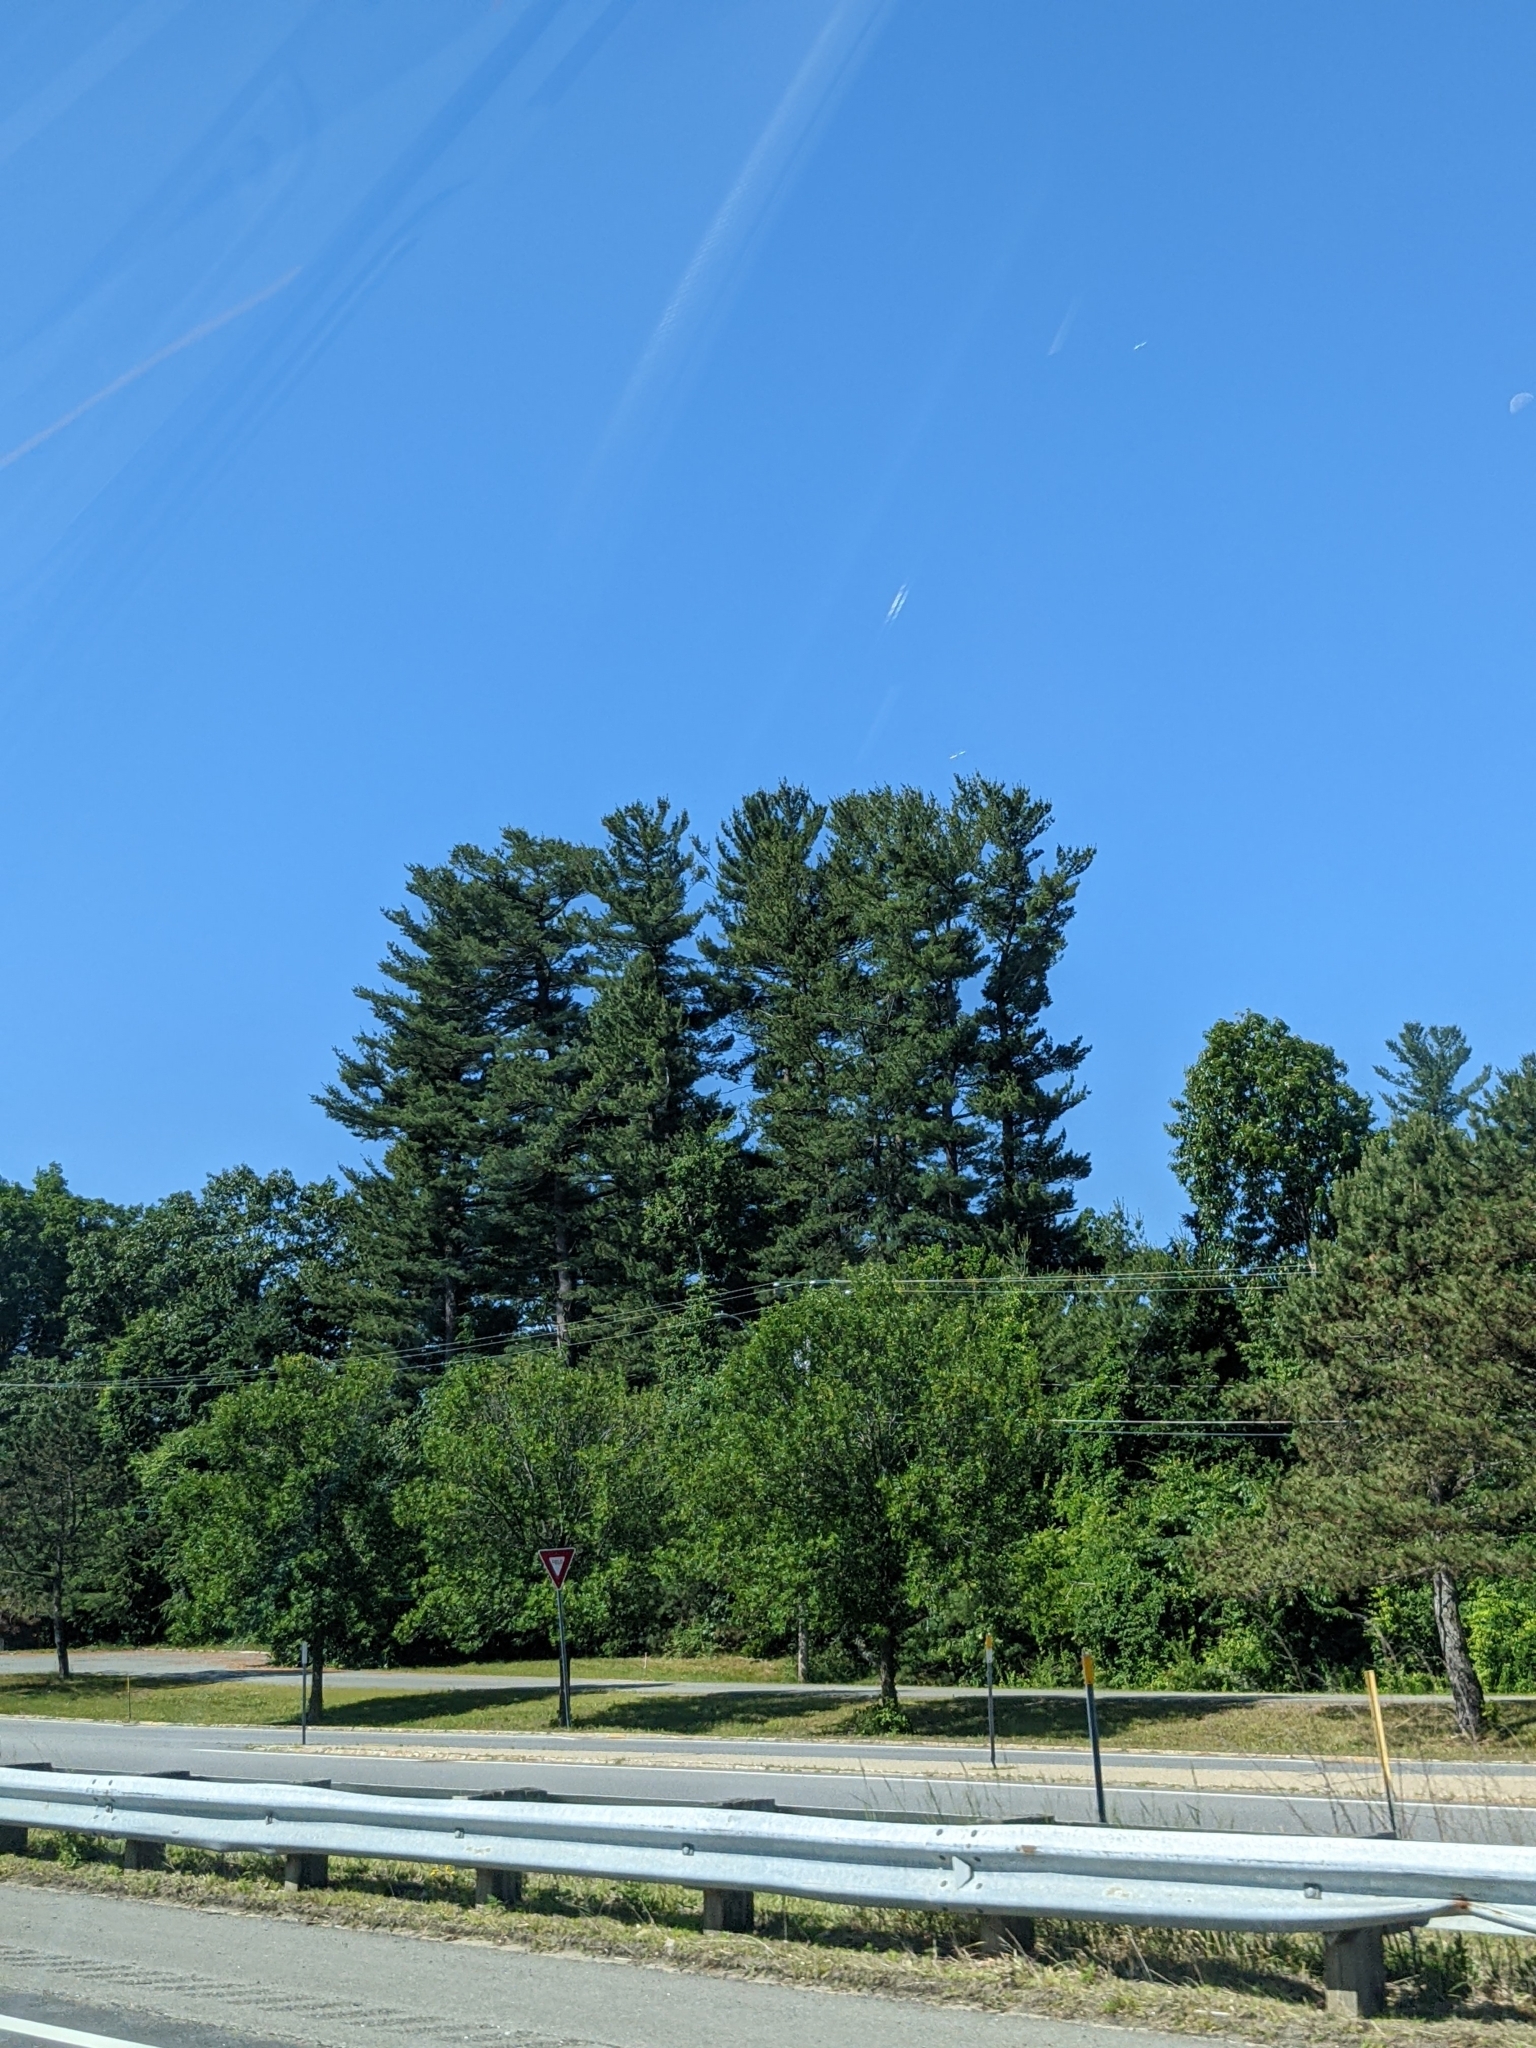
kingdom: Plantae
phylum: Tracheophyta
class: Pinopsida
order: Pinales
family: Pinaceae
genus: Pinus
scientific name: Pinus strobus
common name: Weymouth pine
